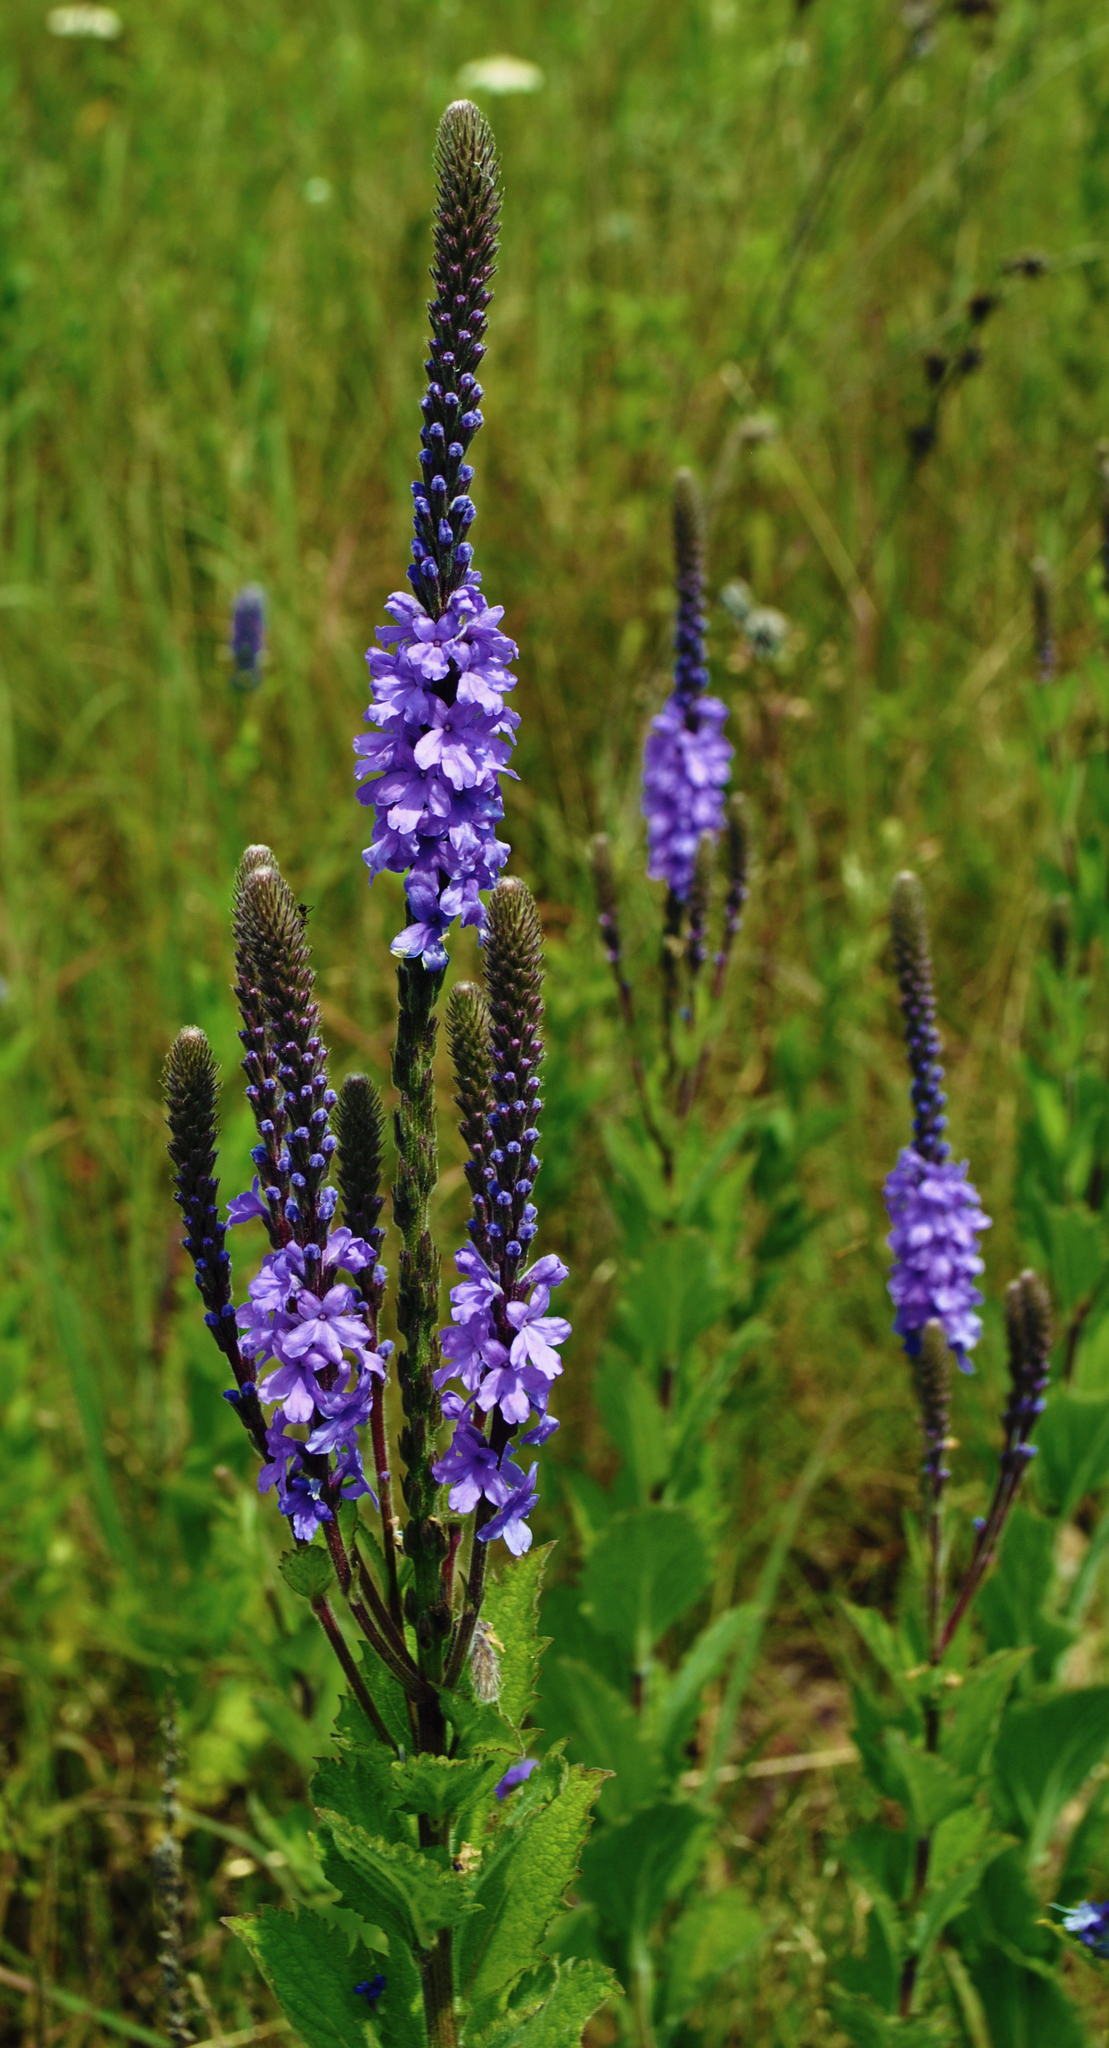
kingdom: Plantae
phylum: Tracheophyta
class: Magnoliopsida
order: Lamiales
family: Verbenaceae
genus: Verbena
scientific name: Verbena stricta
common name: Hoary vervain
